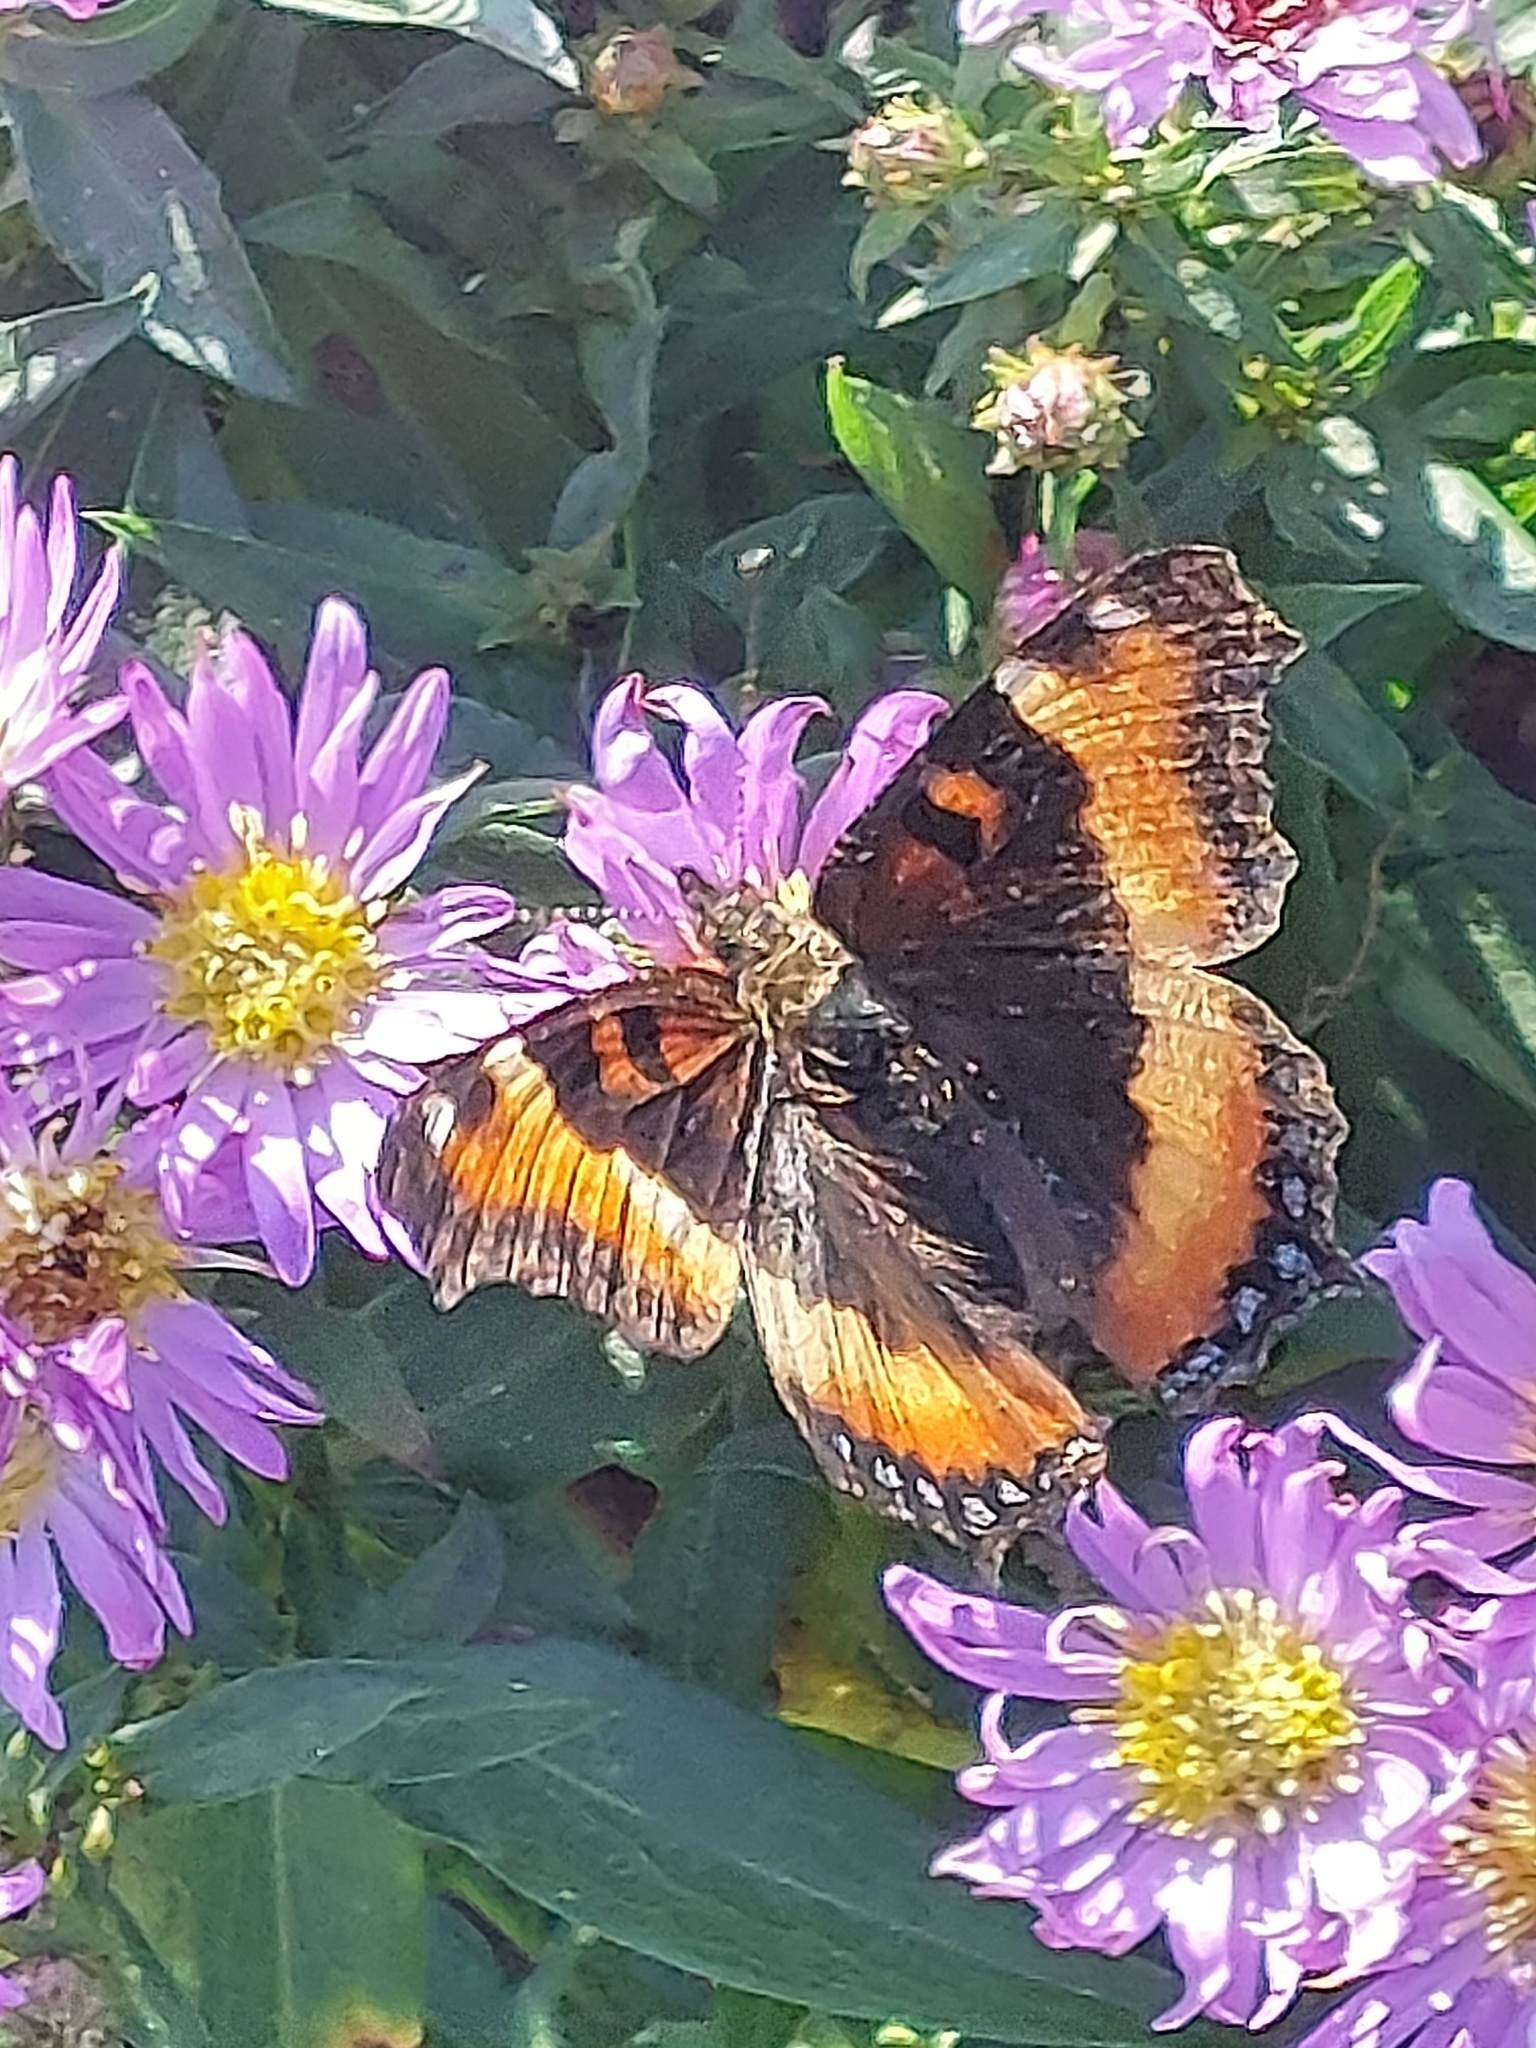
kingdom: Animalia
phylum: Arthropoda
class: Insecta
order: Lepidoptera
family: Nymphalidae
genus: Aglais
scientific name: Aglais milberti
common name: Milbert's tortoiseshell
